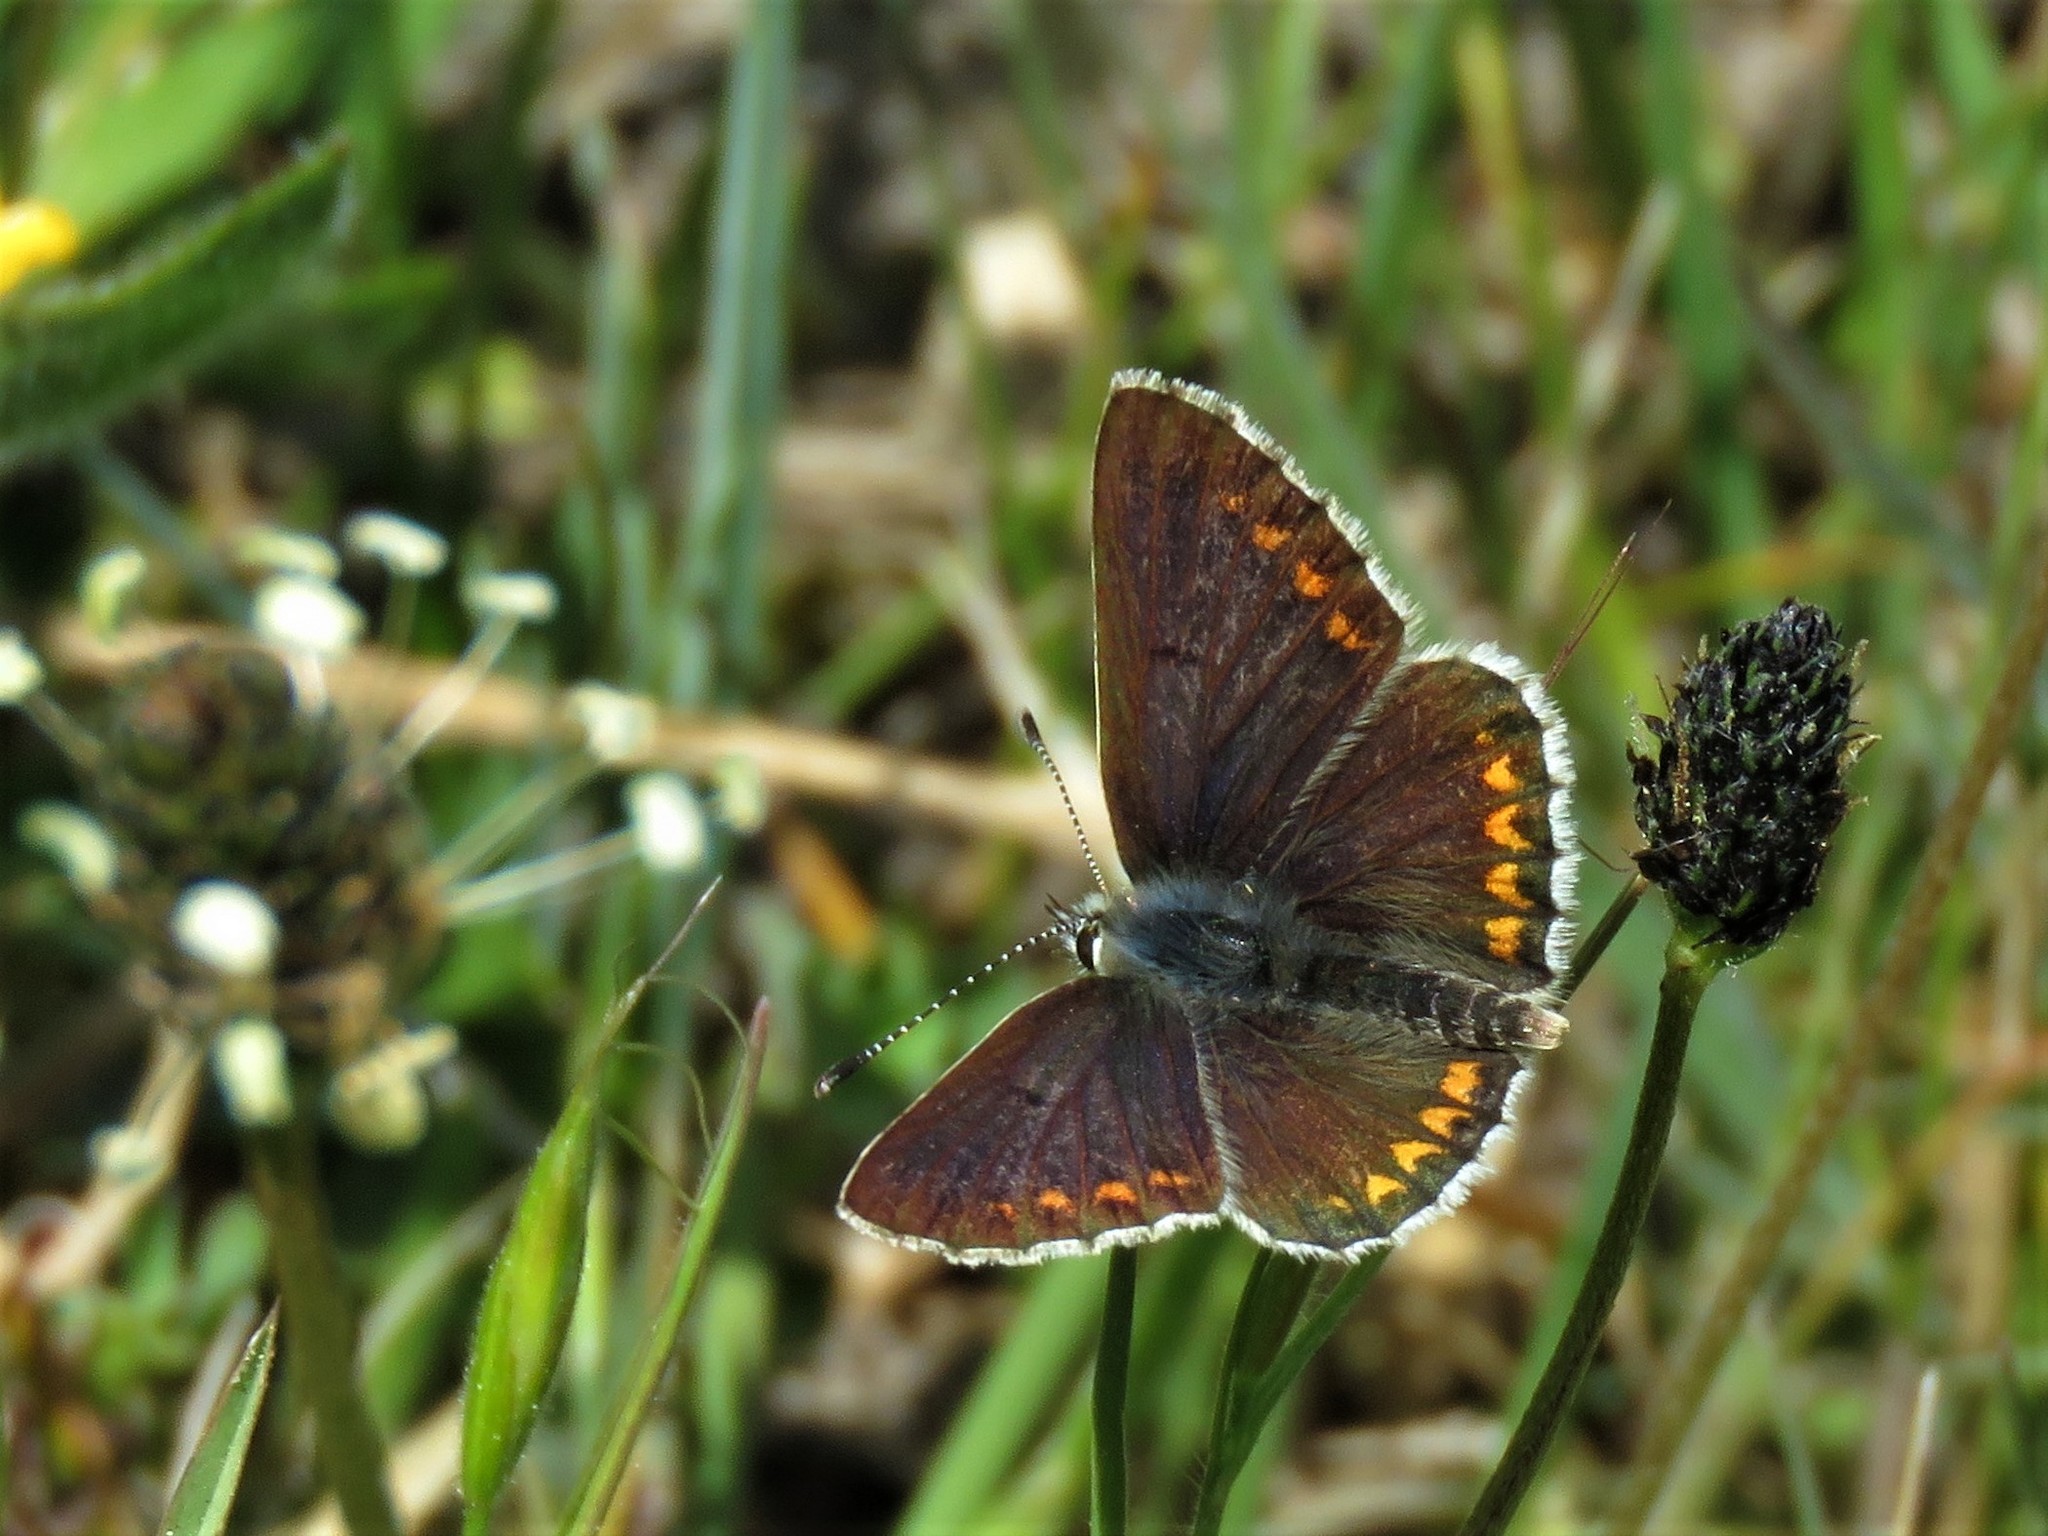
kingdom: Animalia
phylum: Arthropoda
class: Insecta
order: Lepidoptera
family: Lycaenidae
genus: Aricia
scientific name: Aricia agestis
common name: Brown argus
